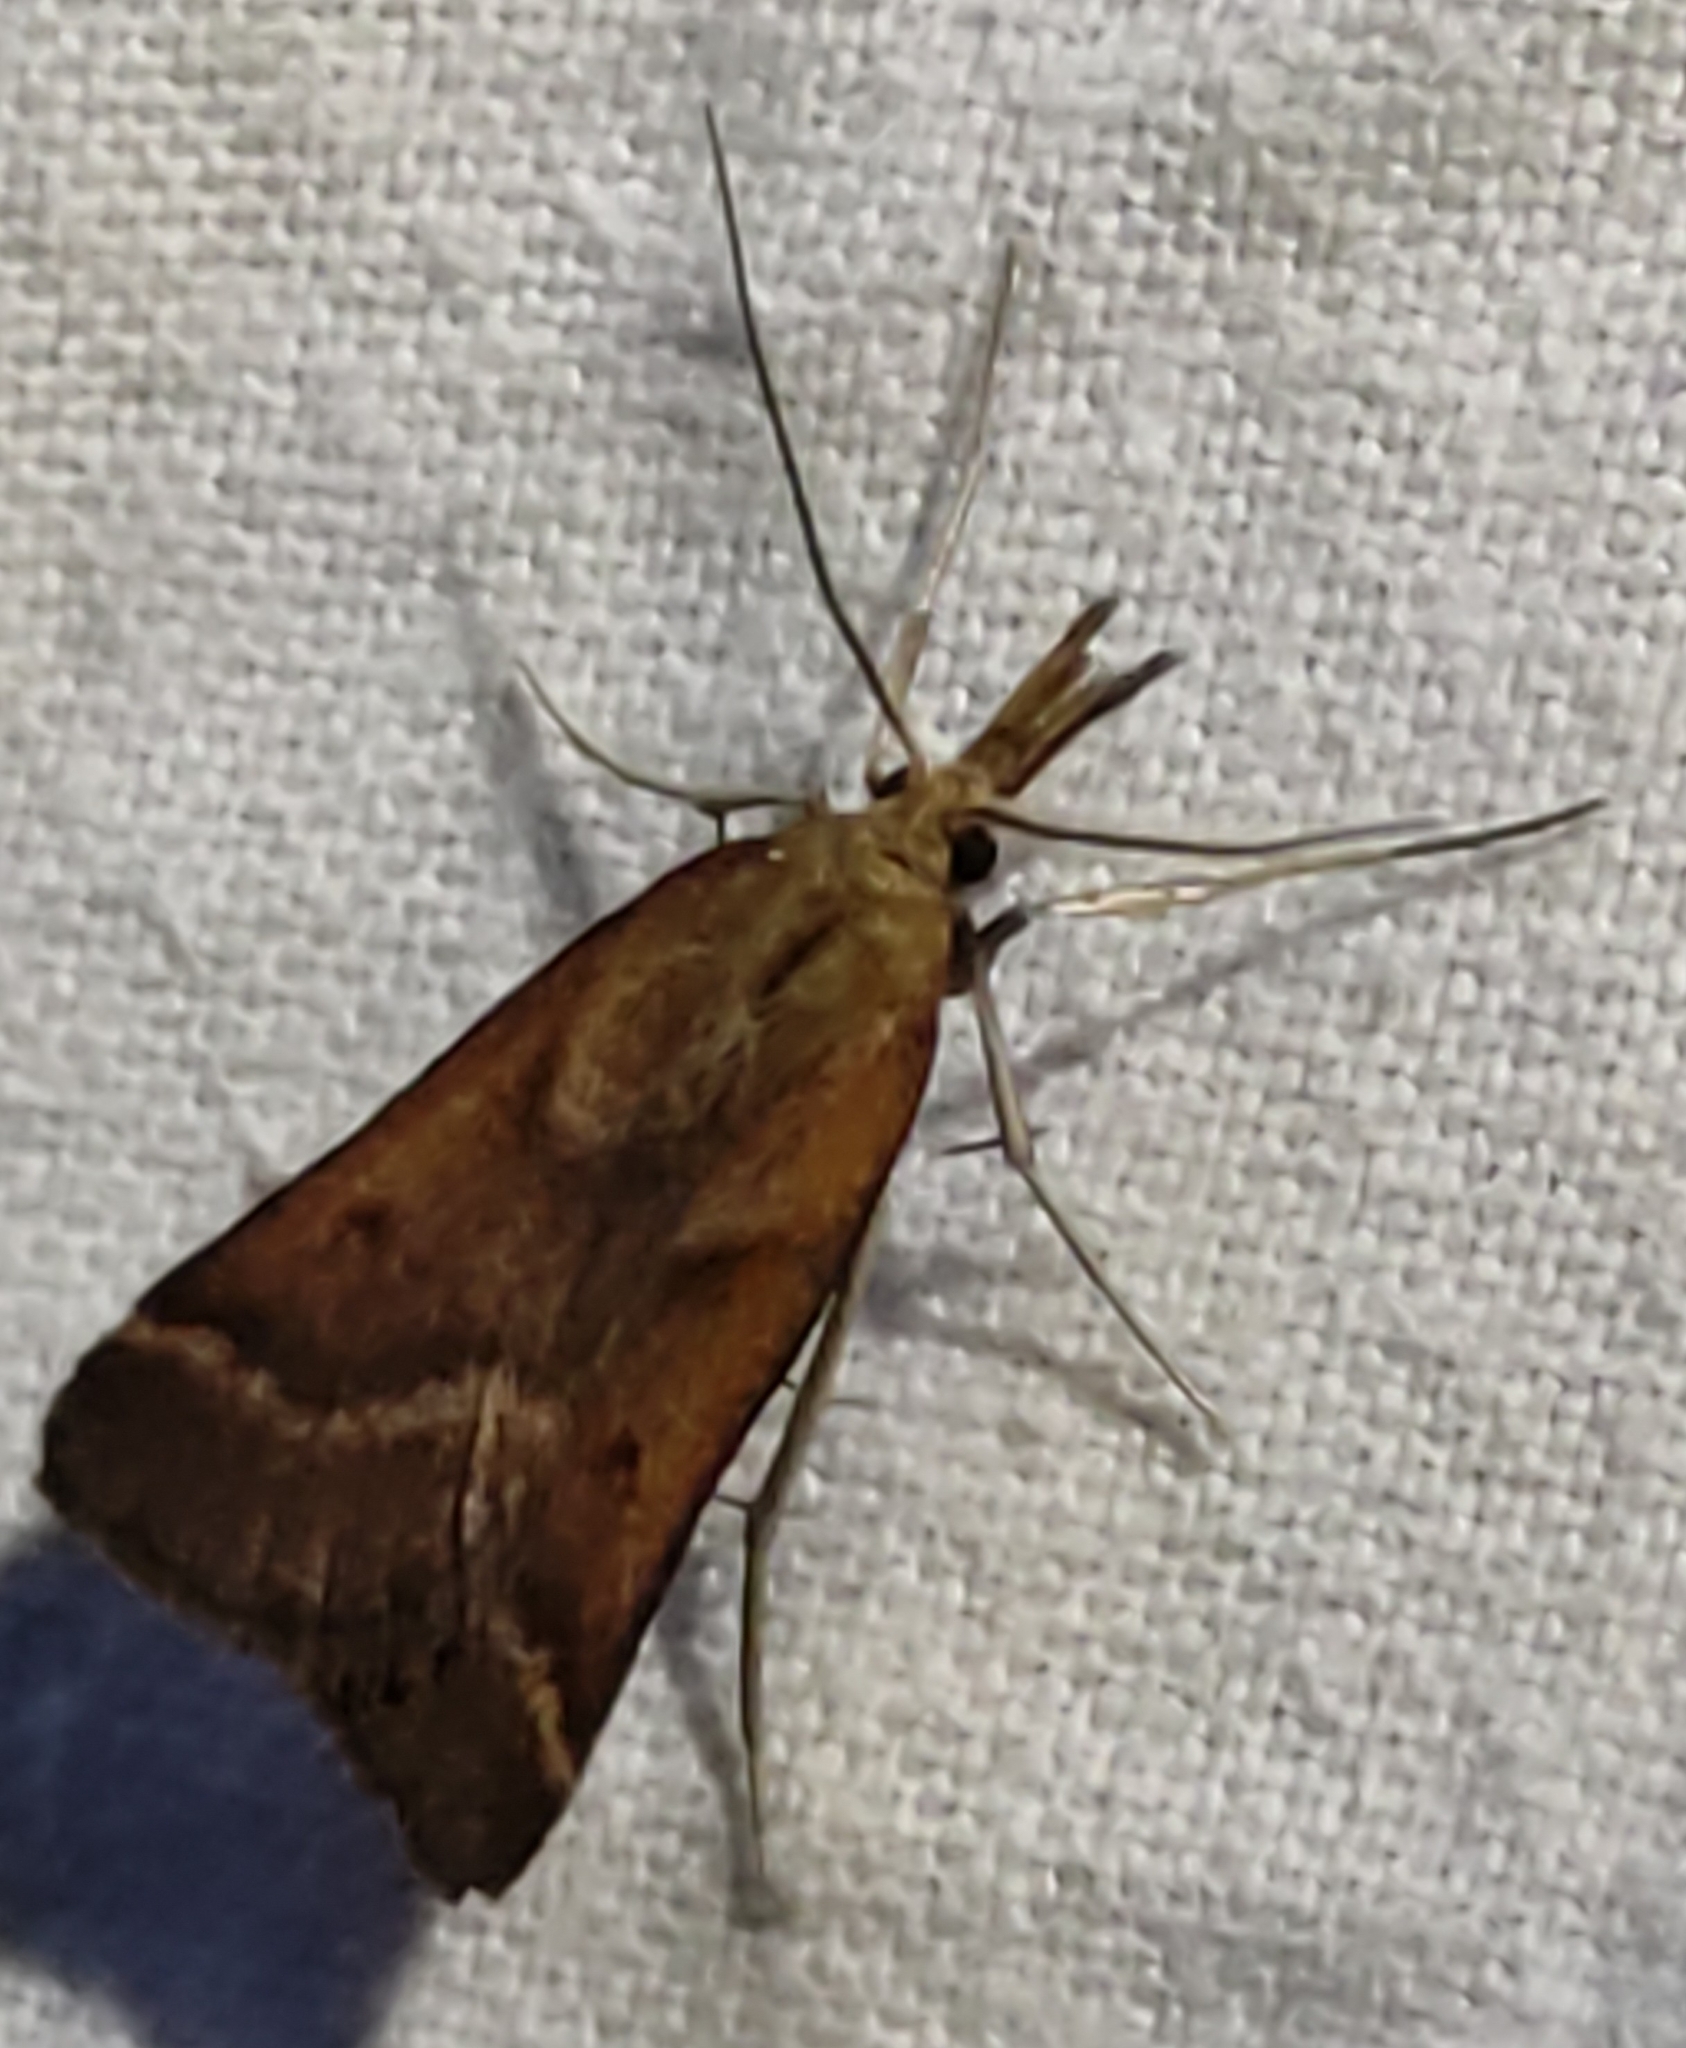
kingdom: Animalia
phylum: Arthropoda
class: Insecta
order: Lepidoptera
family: Pyralidae
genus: Synaphe
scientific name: Synaphe punctalis
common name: Long-legged tabby
